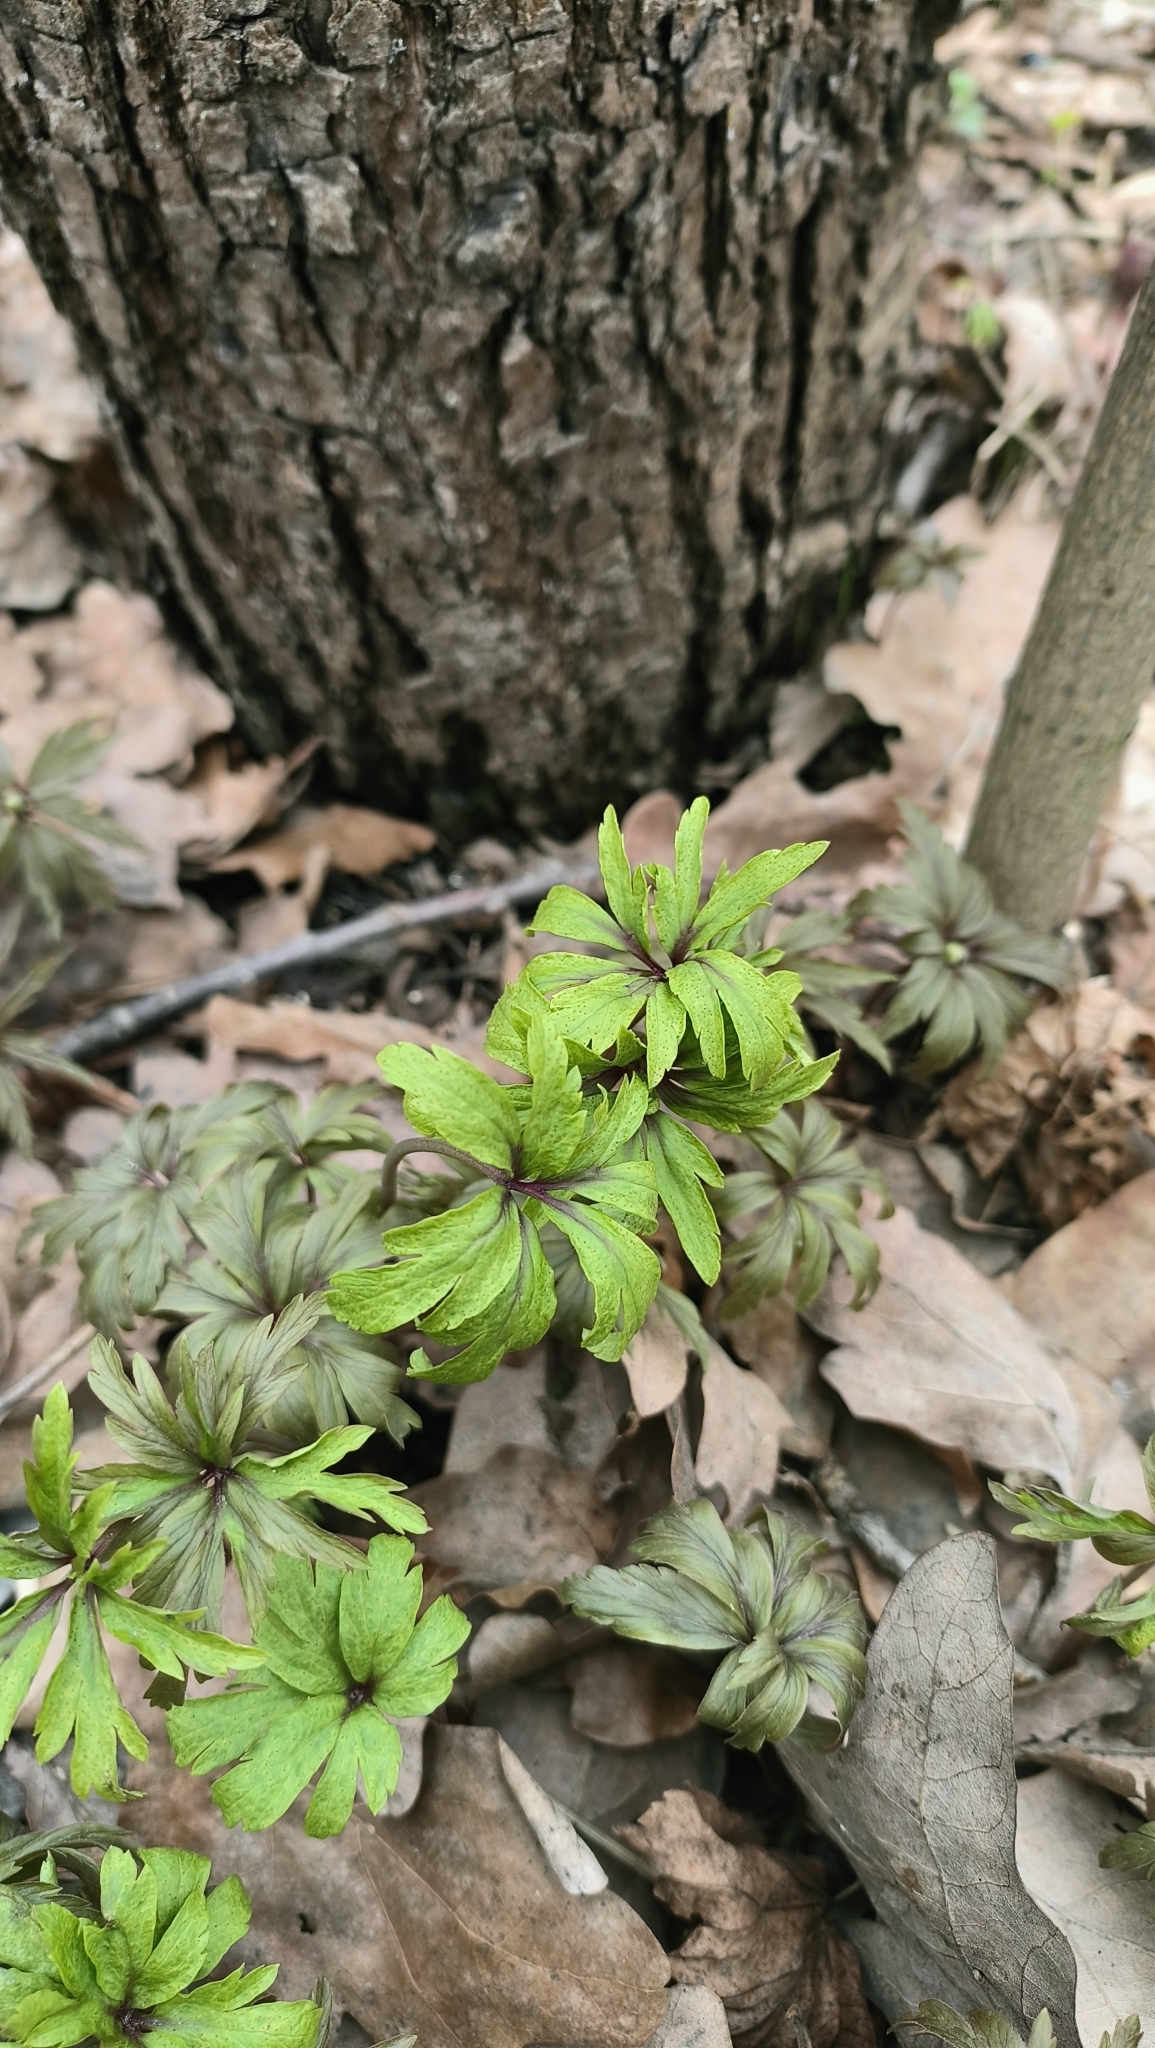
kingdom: Plantae
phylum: Tracheophyta
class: Magnoliopsida
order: Ranunculales
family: Ranunculaceae
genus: Anemone
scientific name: Anemone ranunculoides
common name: Yellow anemone
